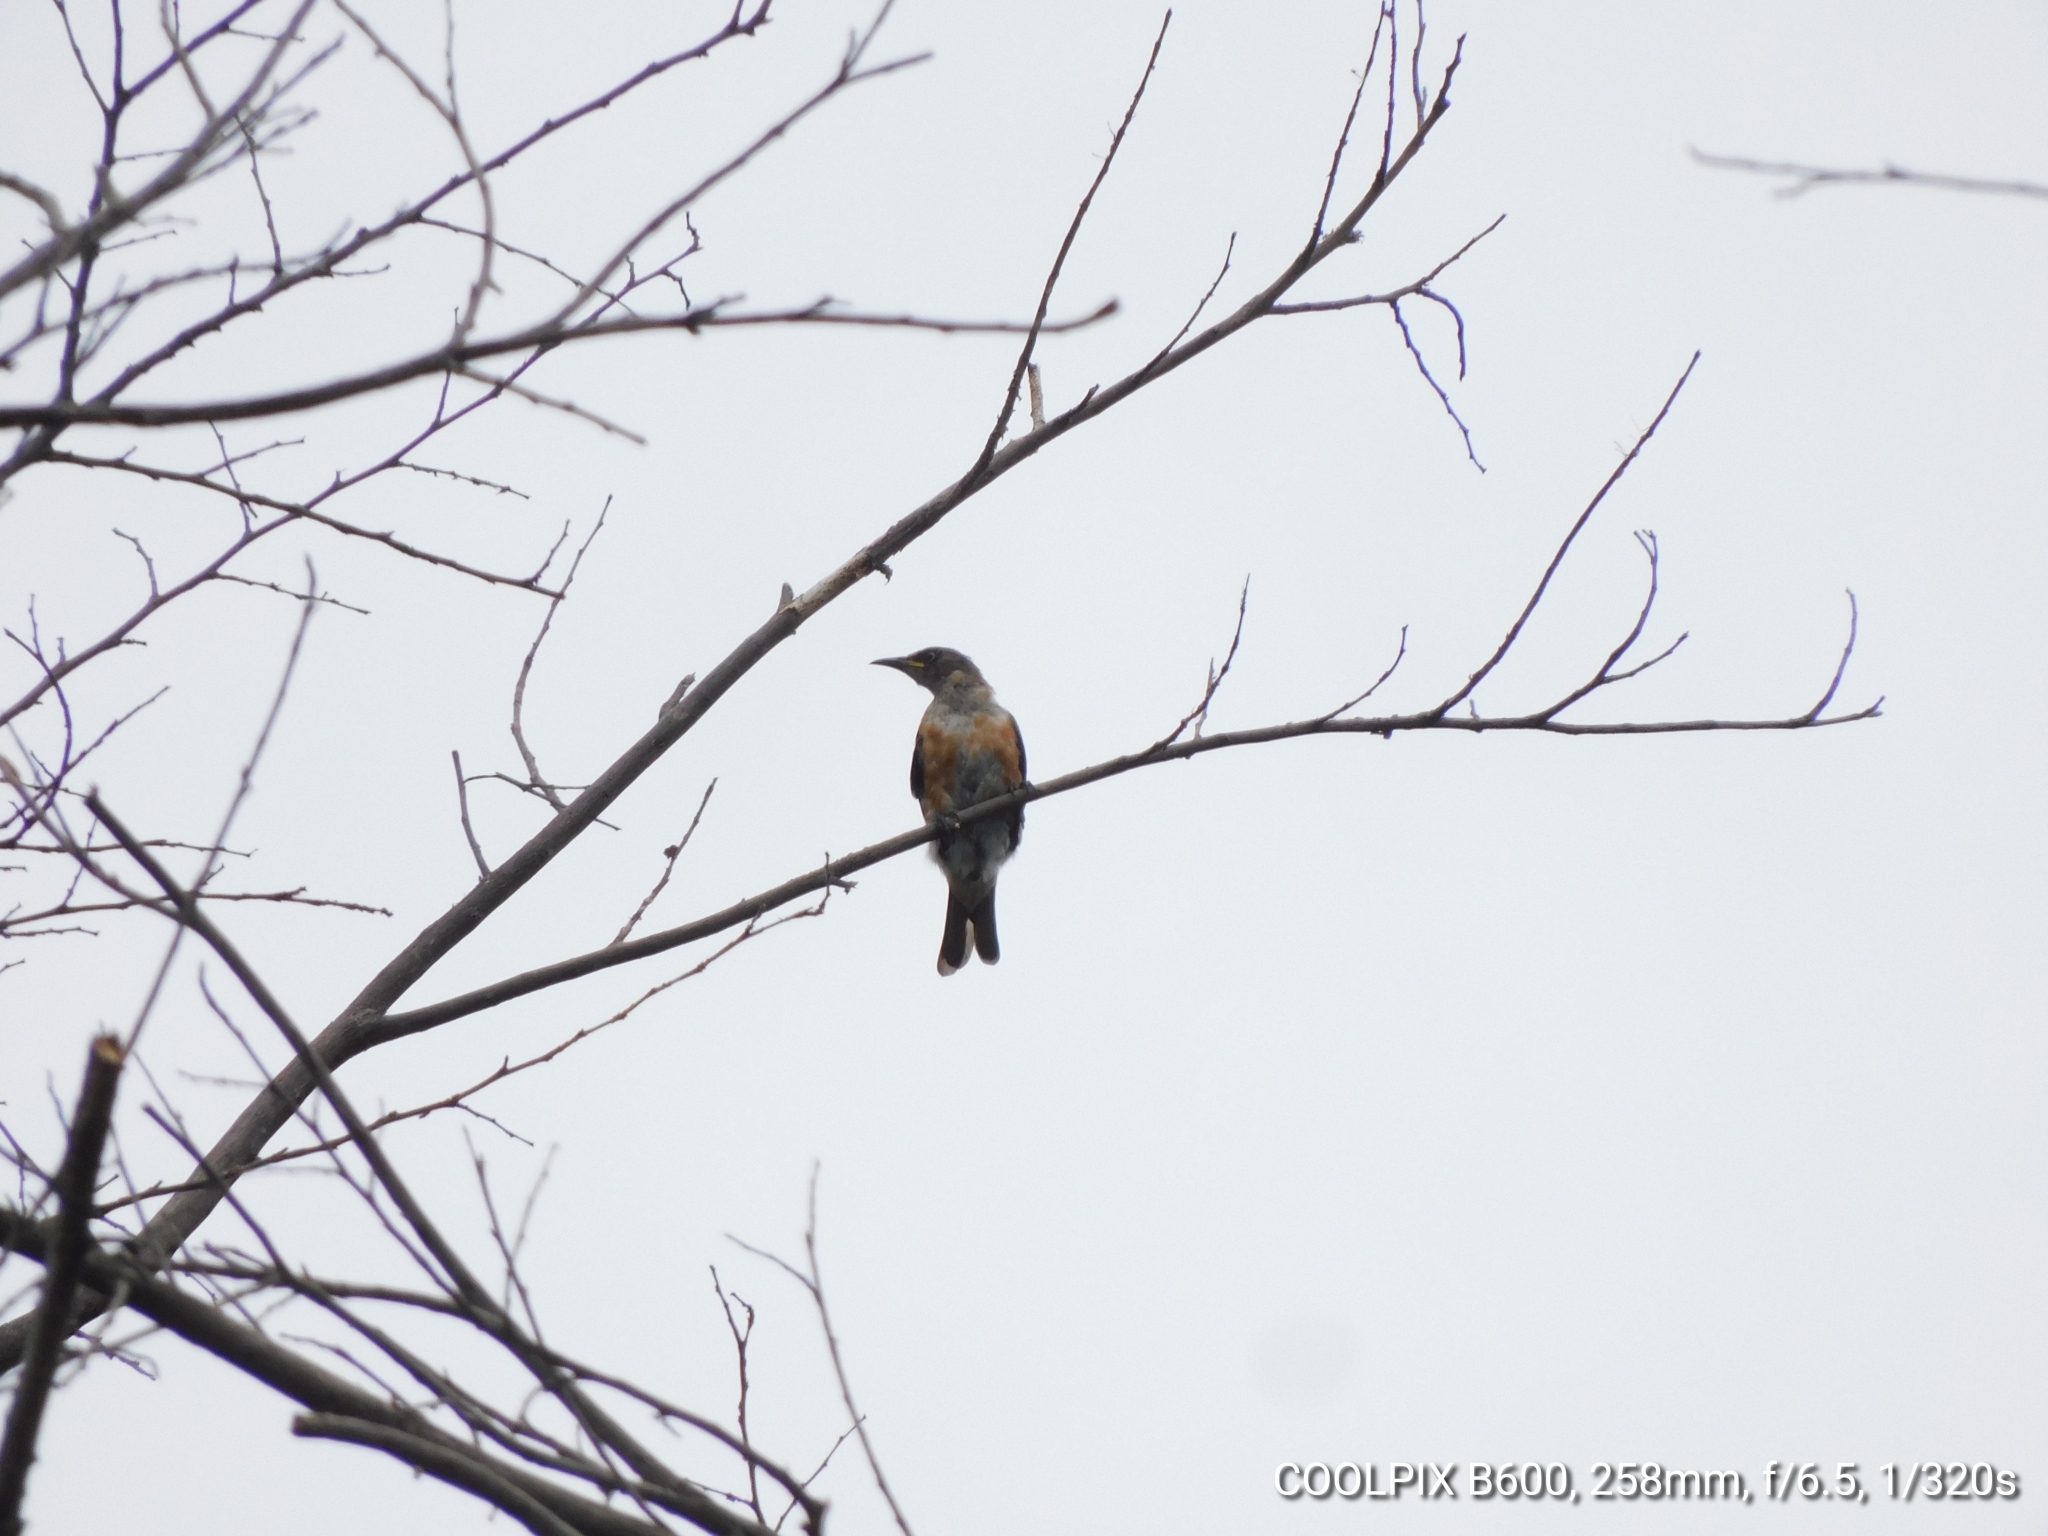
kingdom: Animalia
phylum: Chordata
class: Aves
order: Passeriformes
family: Sturnidae
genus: Saroglossa
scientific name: Saroglossa spiloptera
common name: Spot-winged starling
